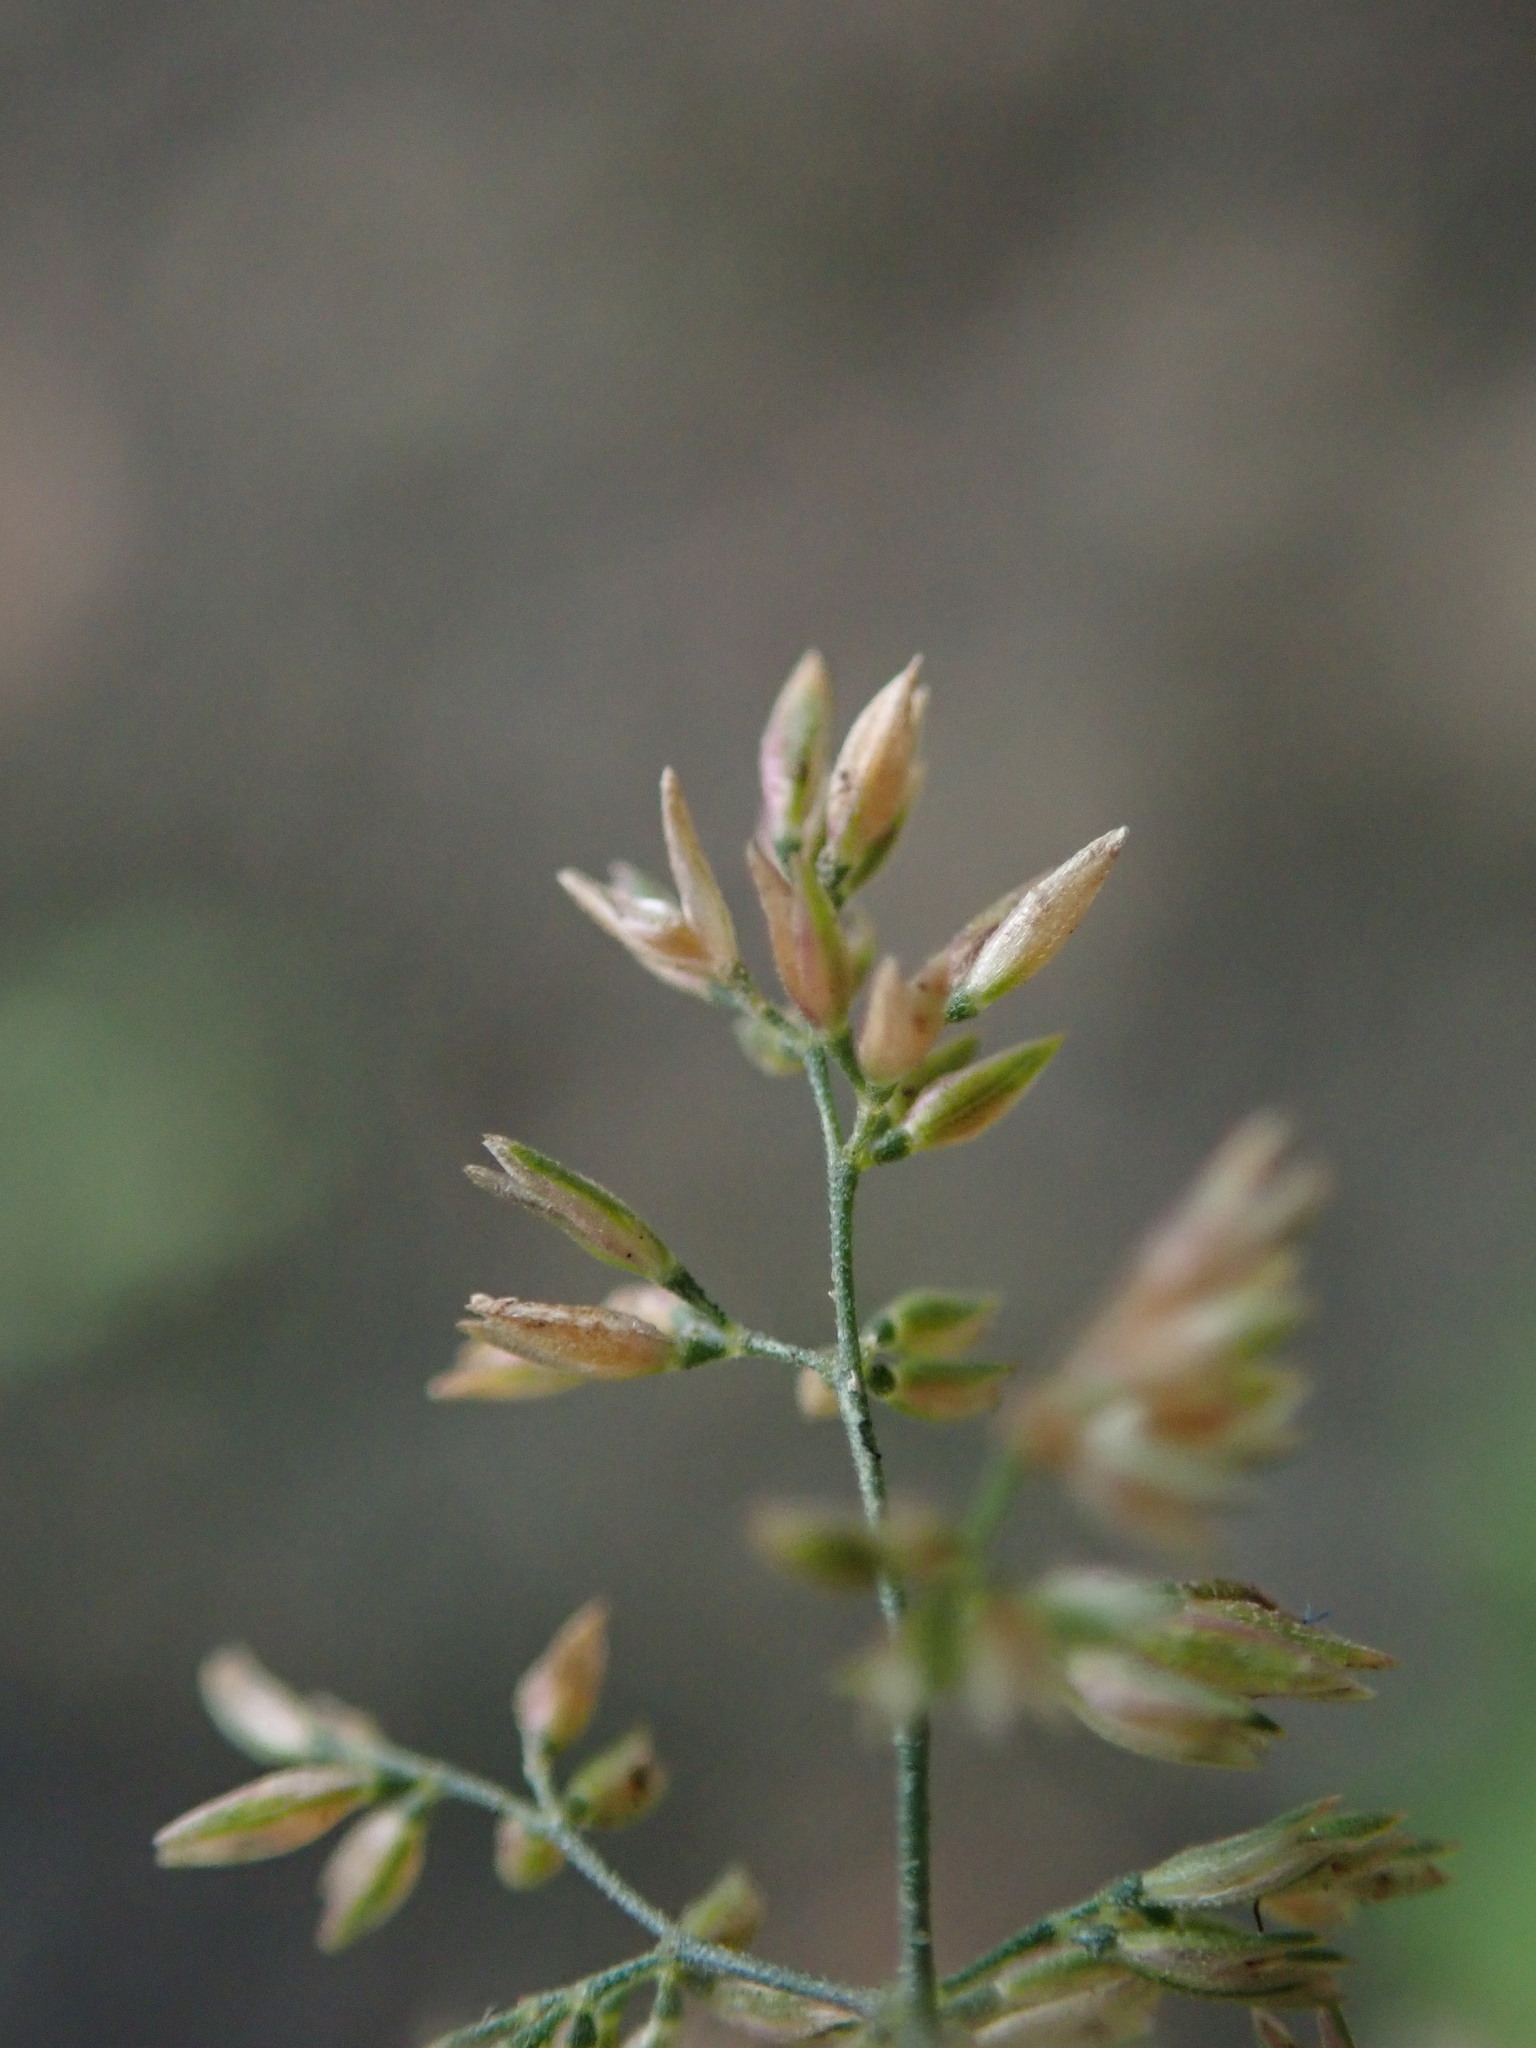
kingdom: Plantae
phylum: Tracheophyta
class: Liliopsida
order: Poales
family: Poaceae
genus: Polypogon
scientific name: Polypogon viridis
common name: Water bent
